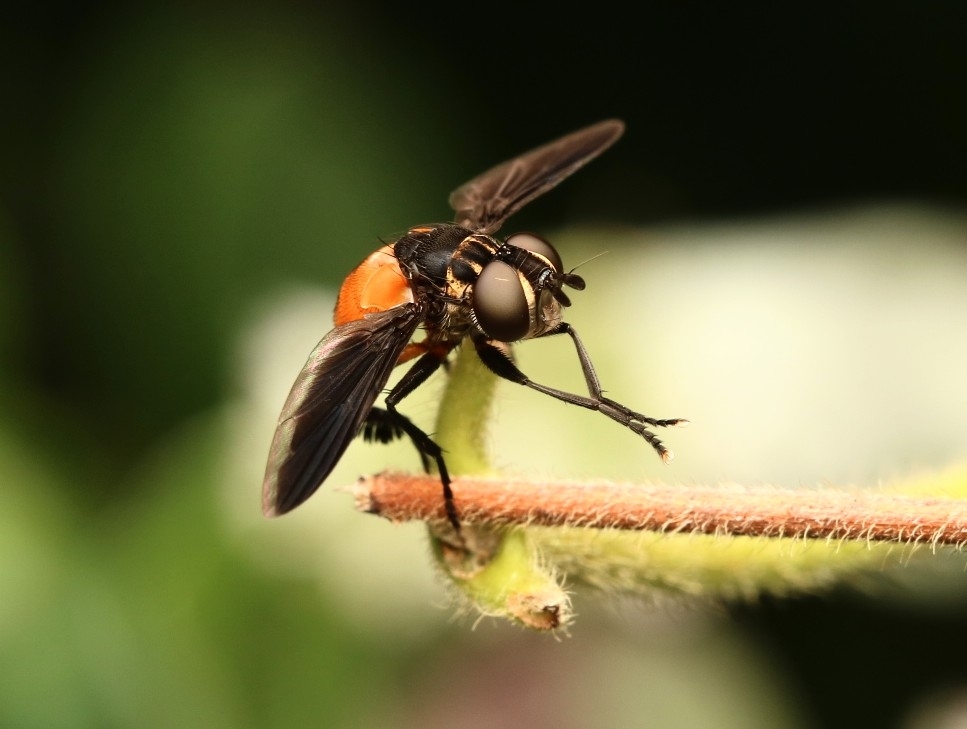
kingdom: Animalia
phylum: Arthropoda
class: Insecta
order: Diptera
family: Tachinidae
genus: Trichopoda
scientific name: Trichopoda pennipes
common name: Tachinid fly
